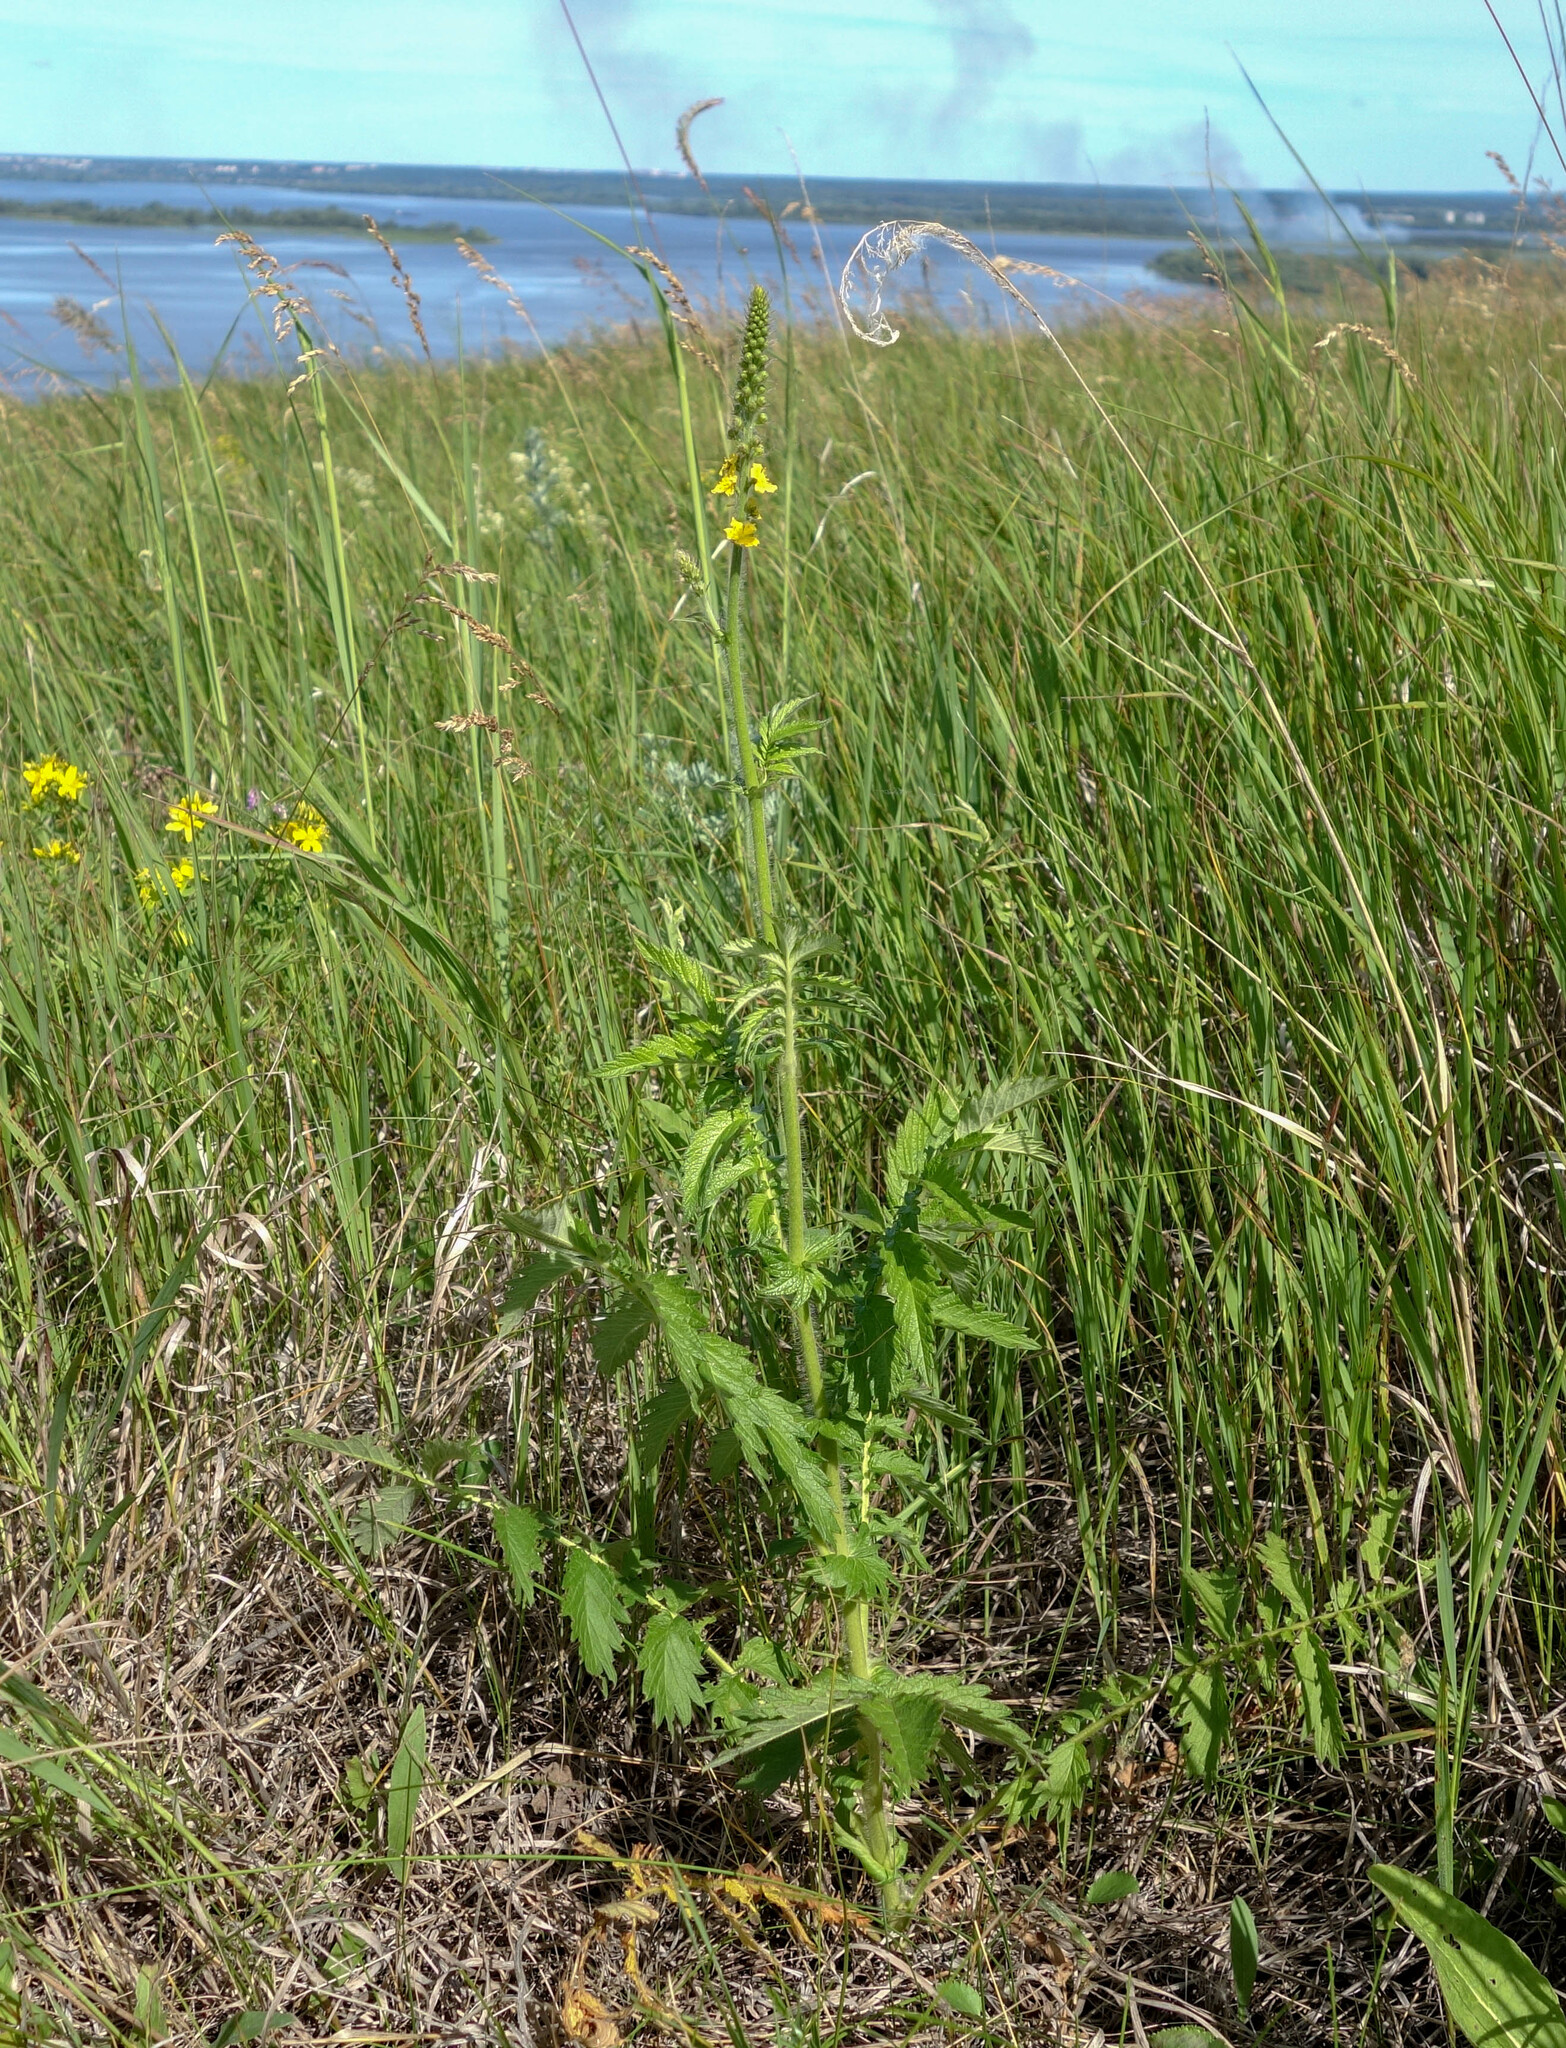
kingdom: Plantae
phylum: Tracheophyta
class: Magnoliopsida
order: Rosales
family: Rosaceae
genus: Agrimonia
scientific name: Agrimonia eupatoria
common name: Agrimony
